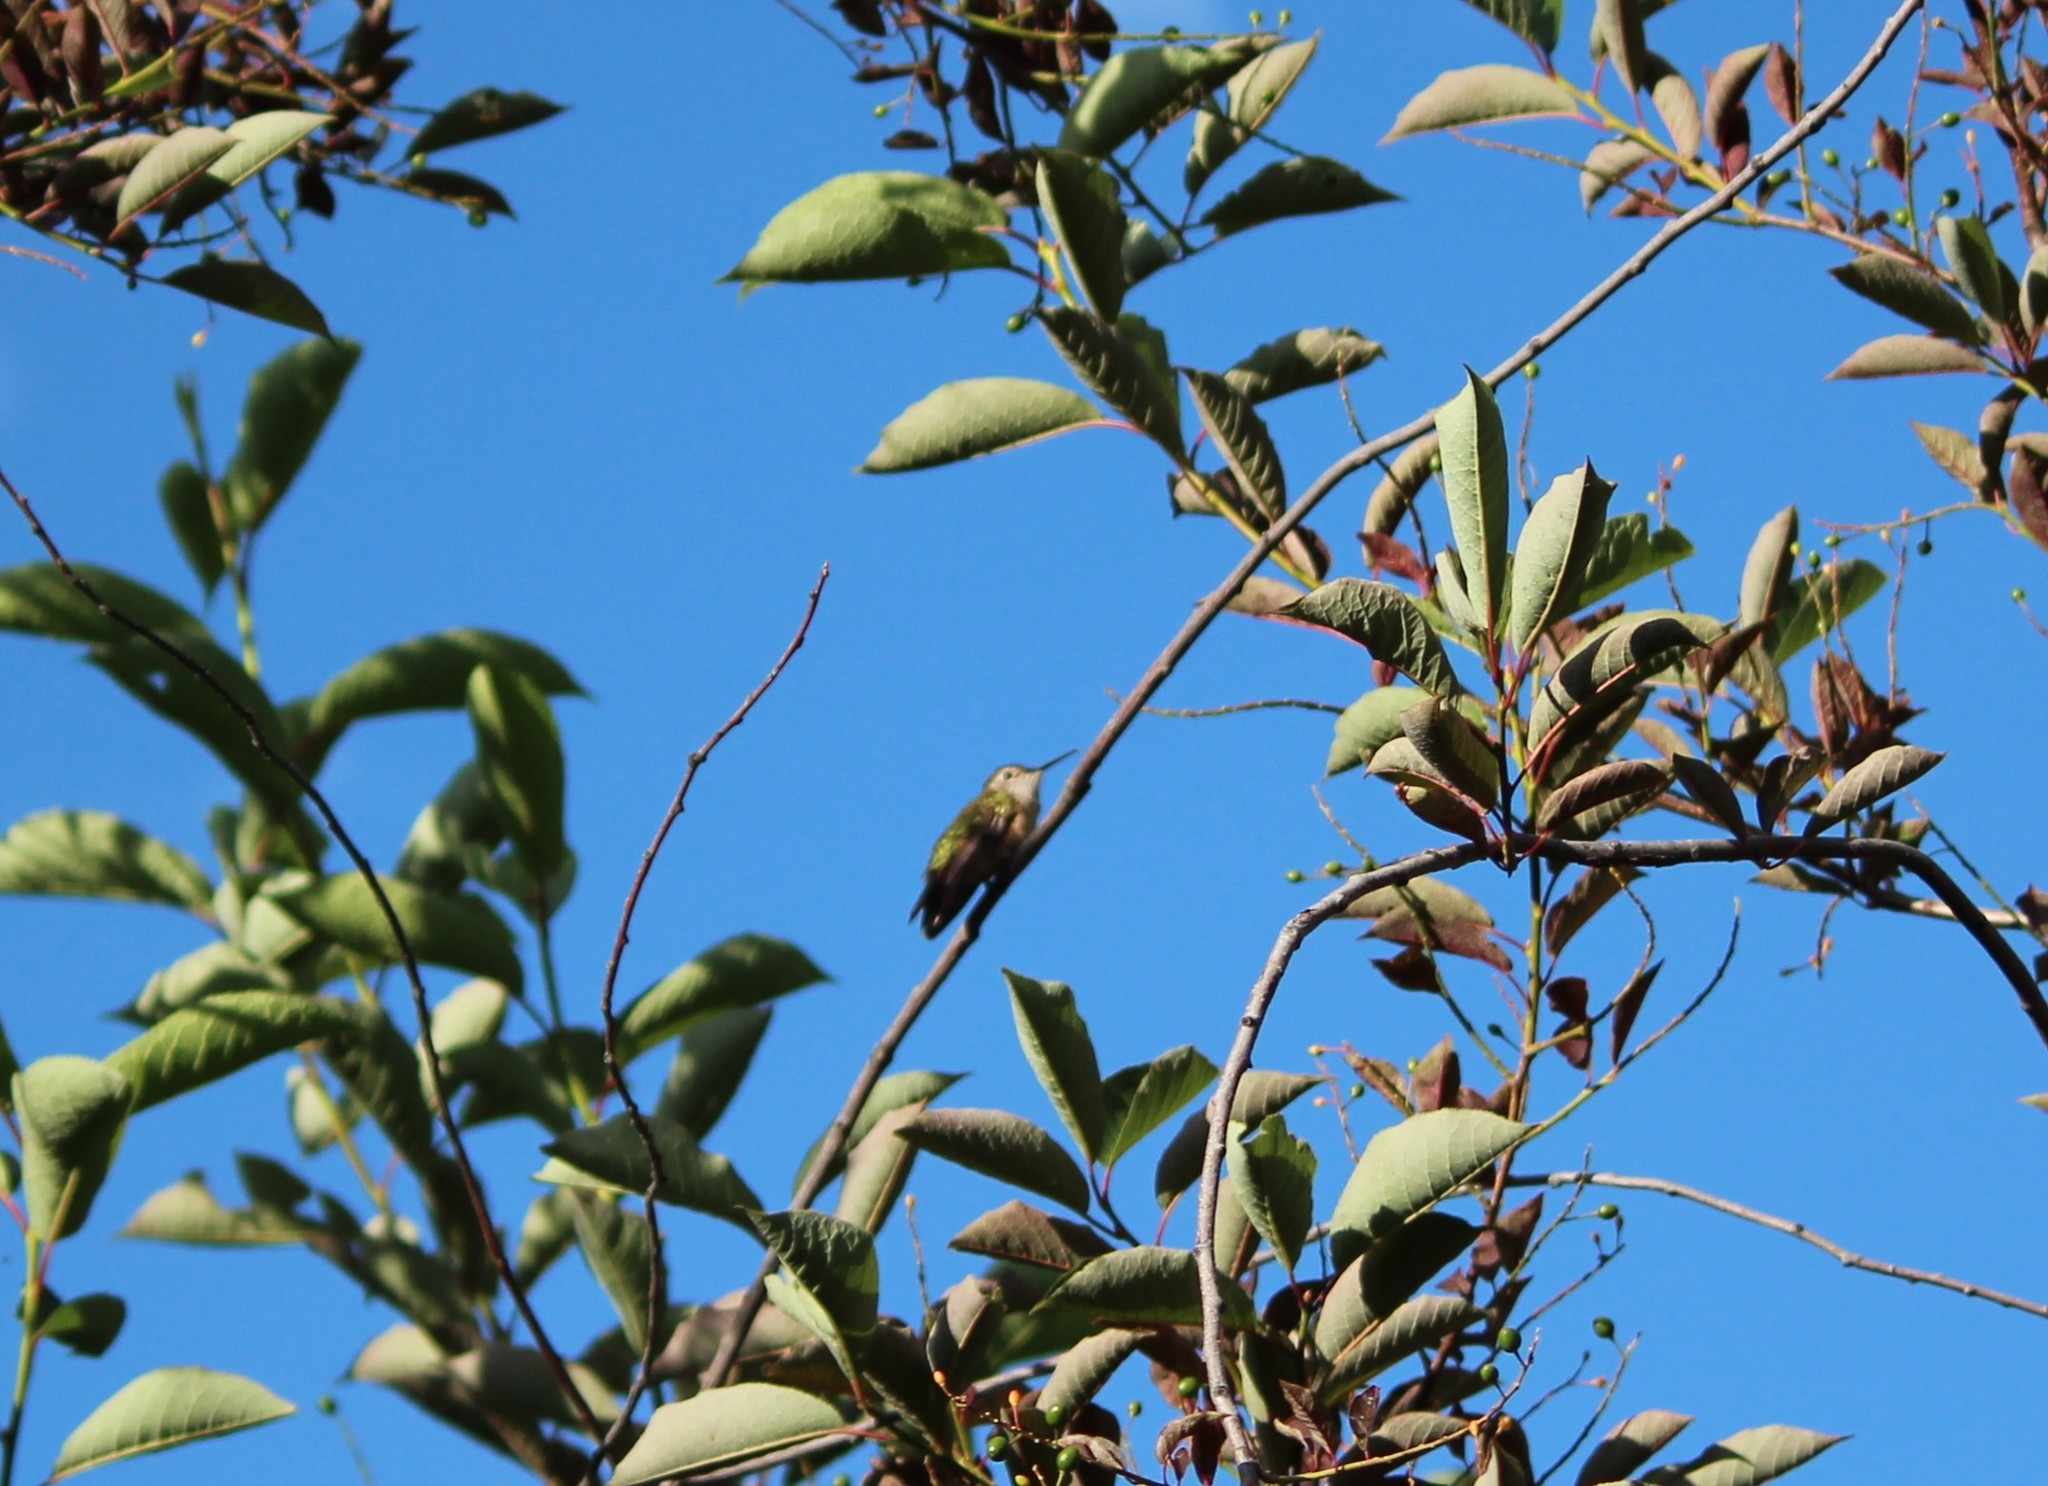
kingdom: Animalia
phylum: Chordata
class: Aves
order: Apodiformes
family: Trochilidae
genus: Selasphorus
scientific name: Selasphorus platycercus
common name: Broad-tailed hummingbird
